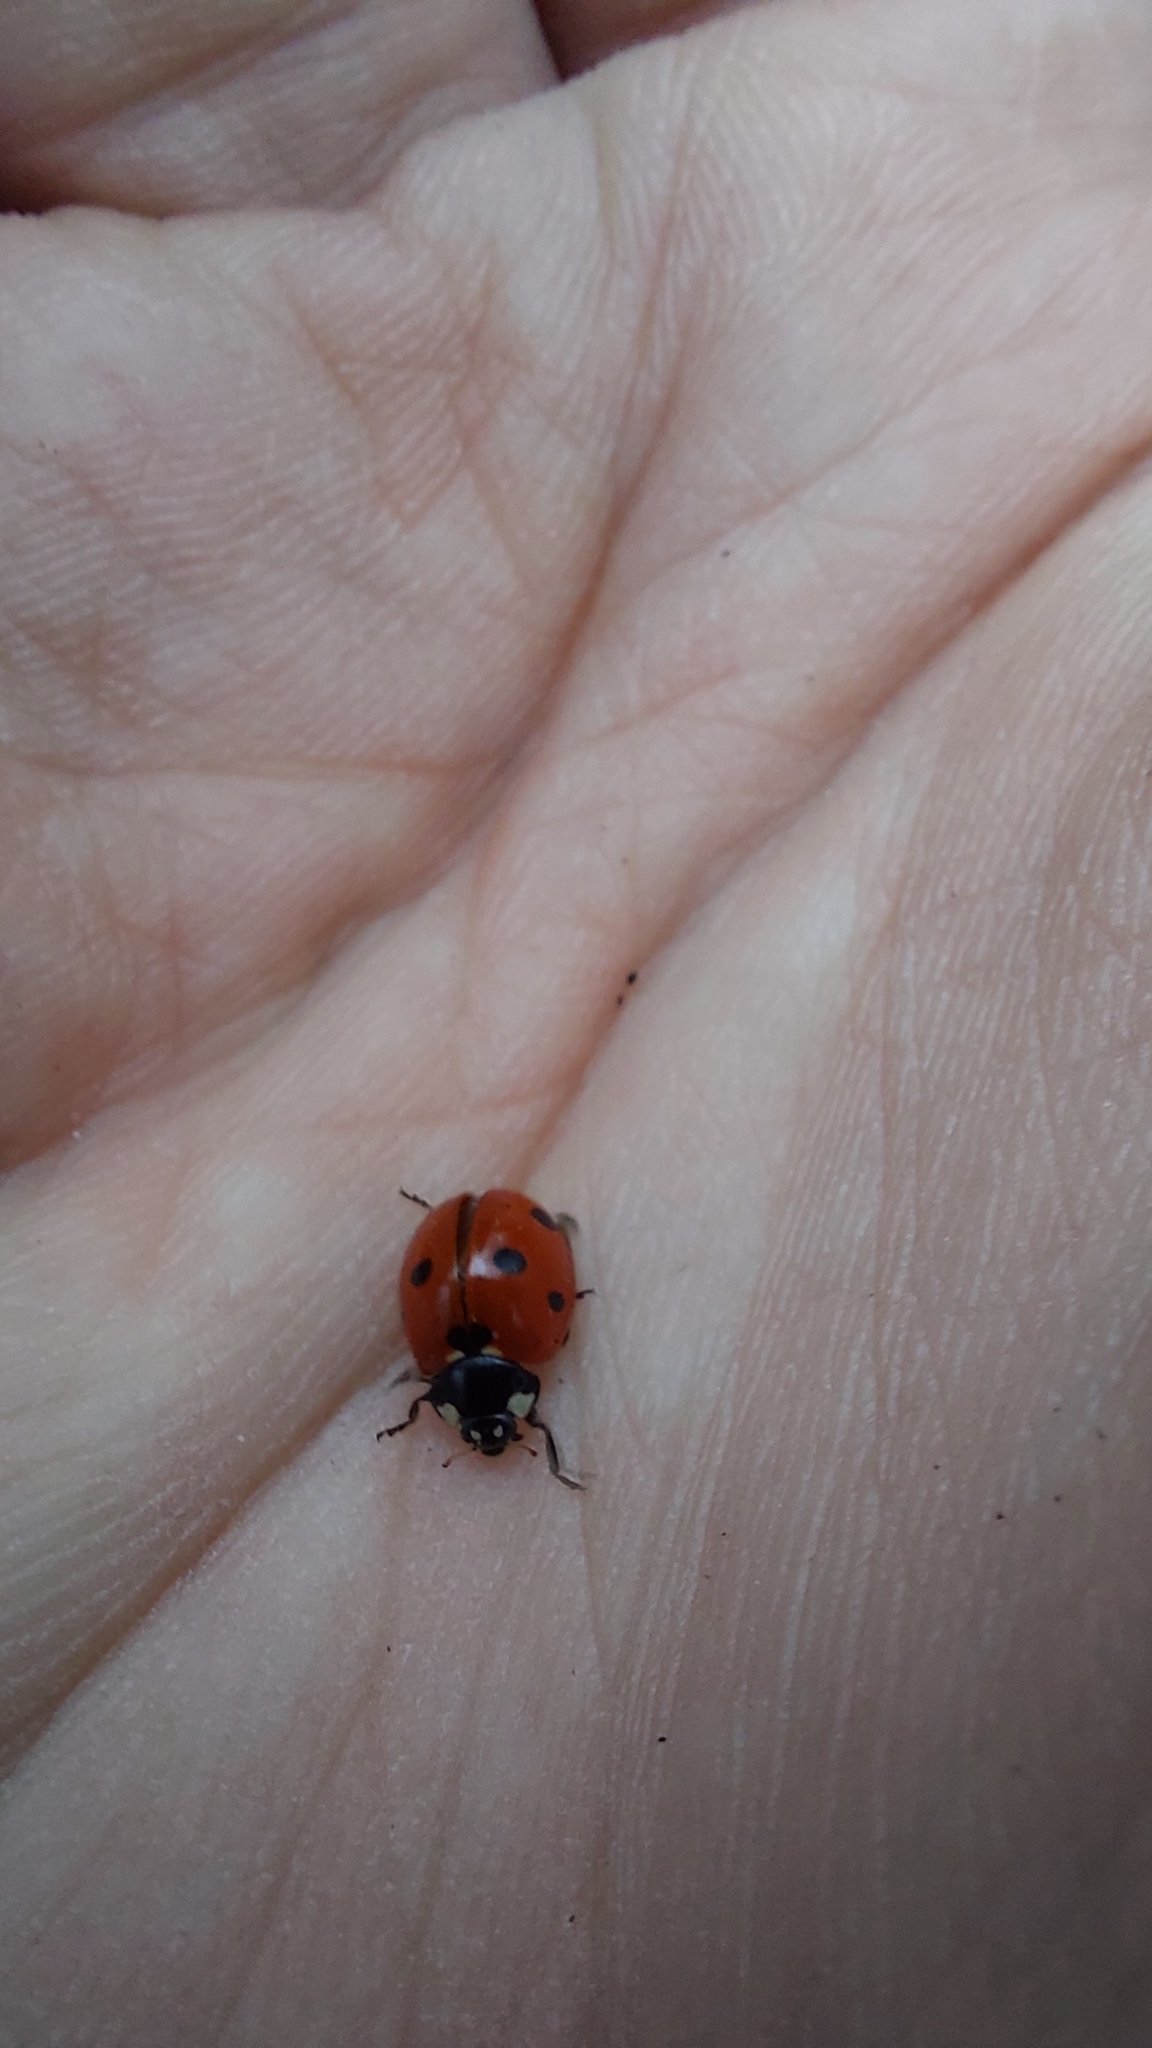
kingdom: Animalia
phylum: Arthropoda
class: Insecta
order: Coleoptera
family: Coccinellidae
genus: Coccinella
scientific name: Coccinella septempunctata
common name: Sevenspotted lady beetle
